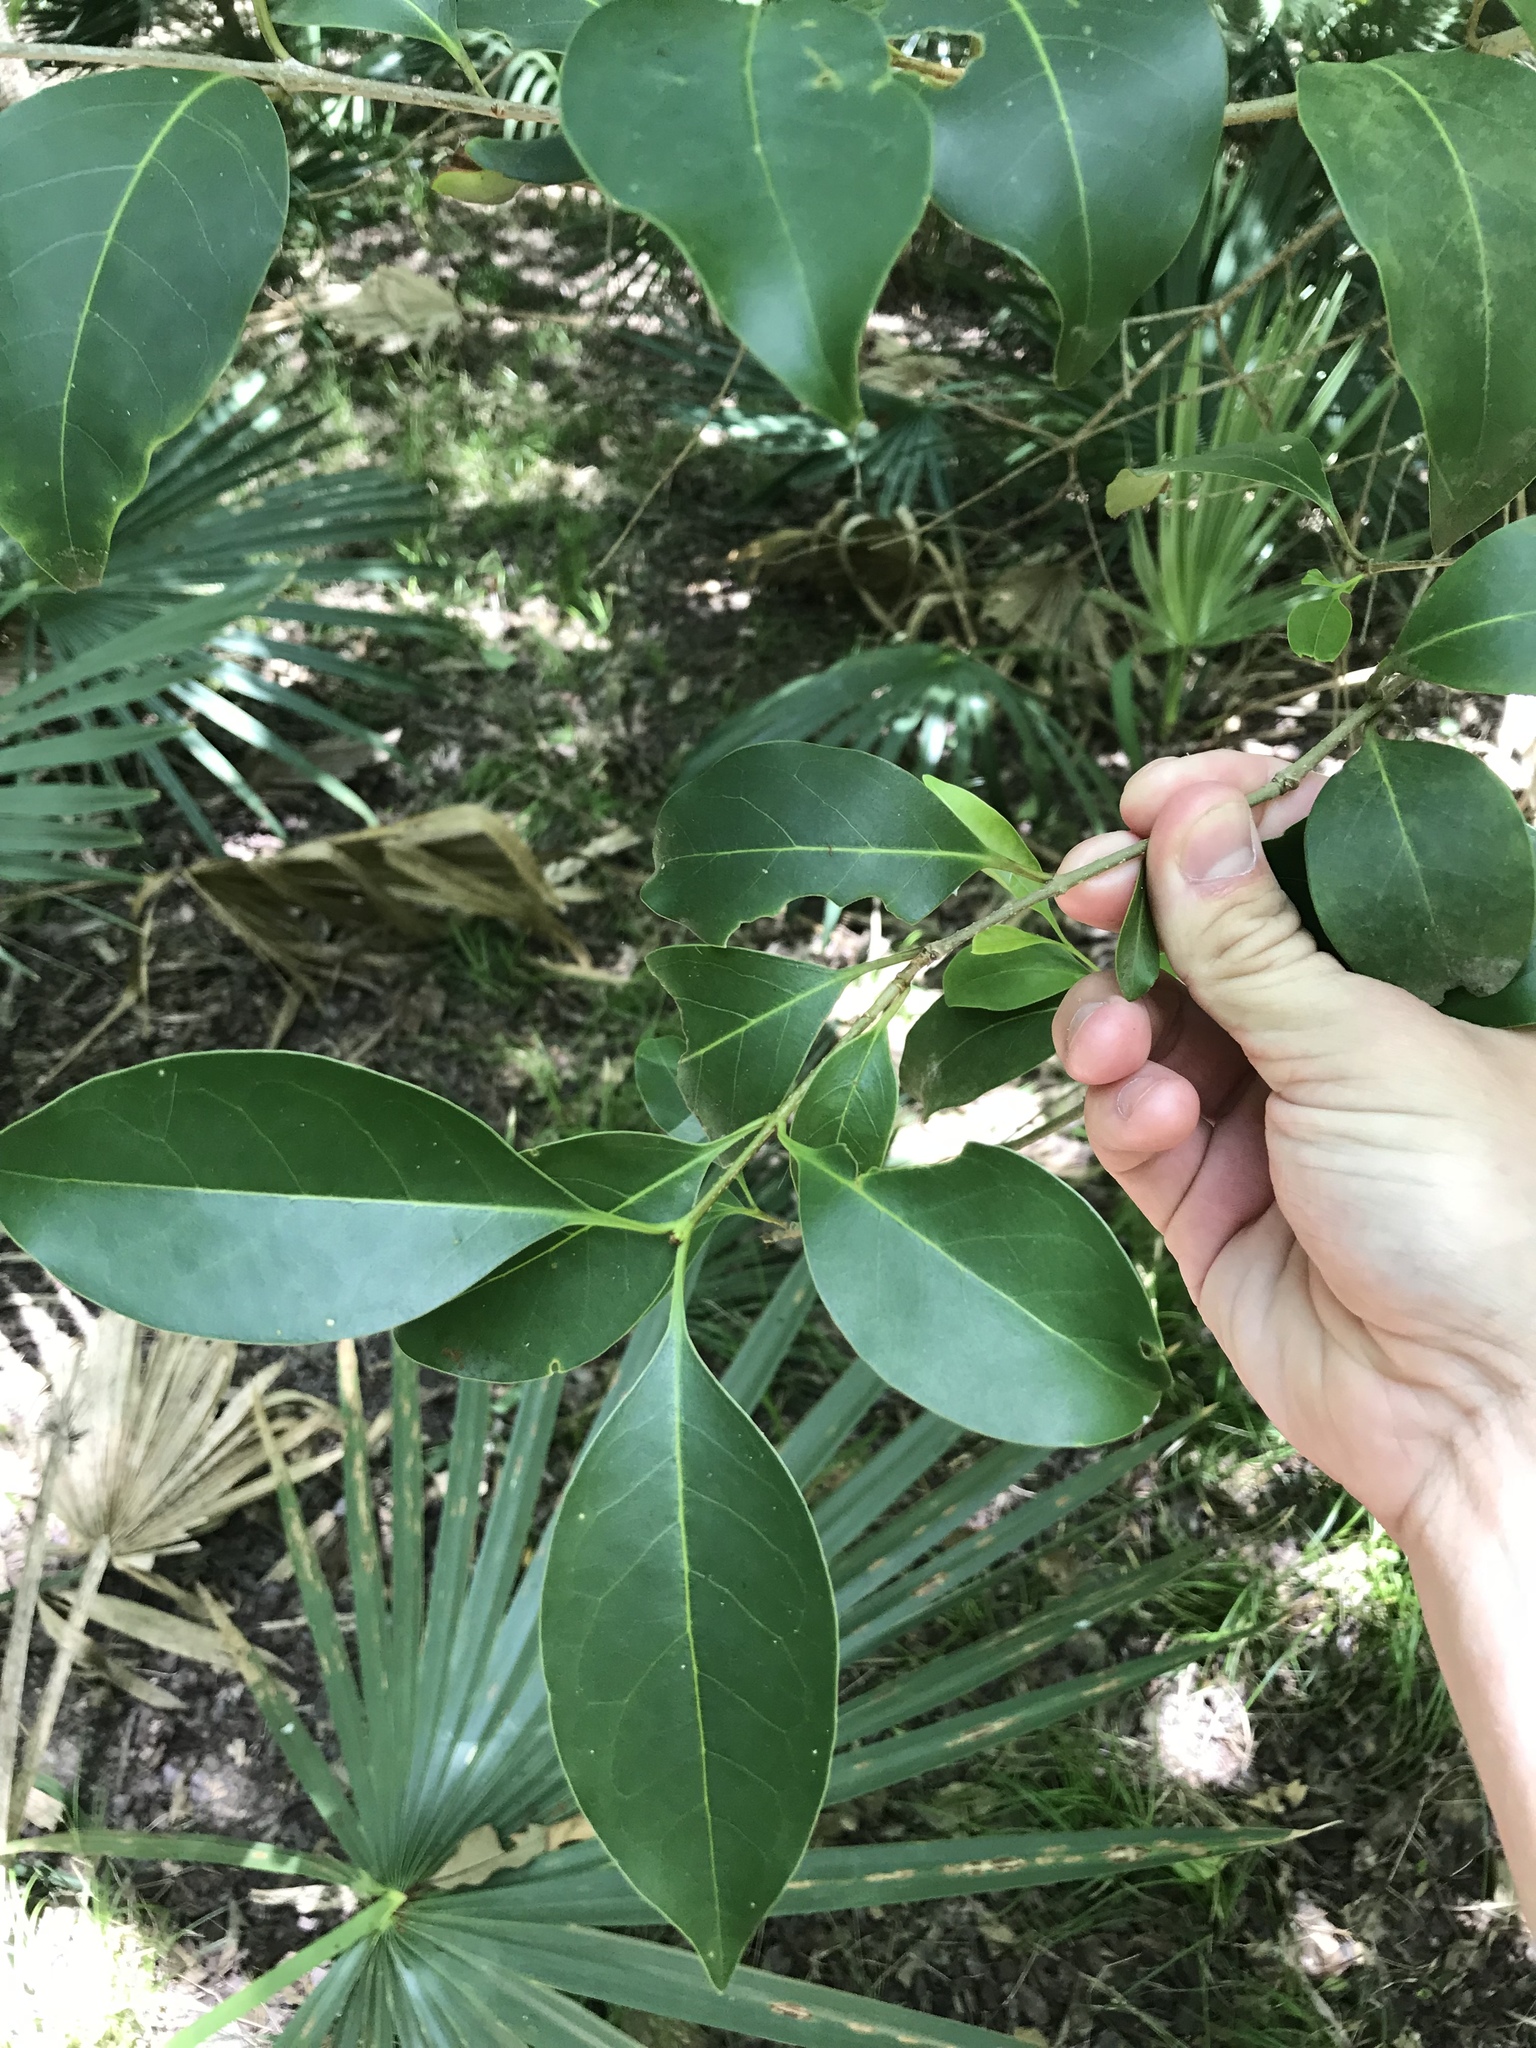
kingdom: Plantae
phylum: Tracheophyta
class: Magnoliopsida
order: Lamiales
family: Oleaceae
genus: Ligustrum
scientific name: Ligustrum lucidum
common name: Glossy privet
